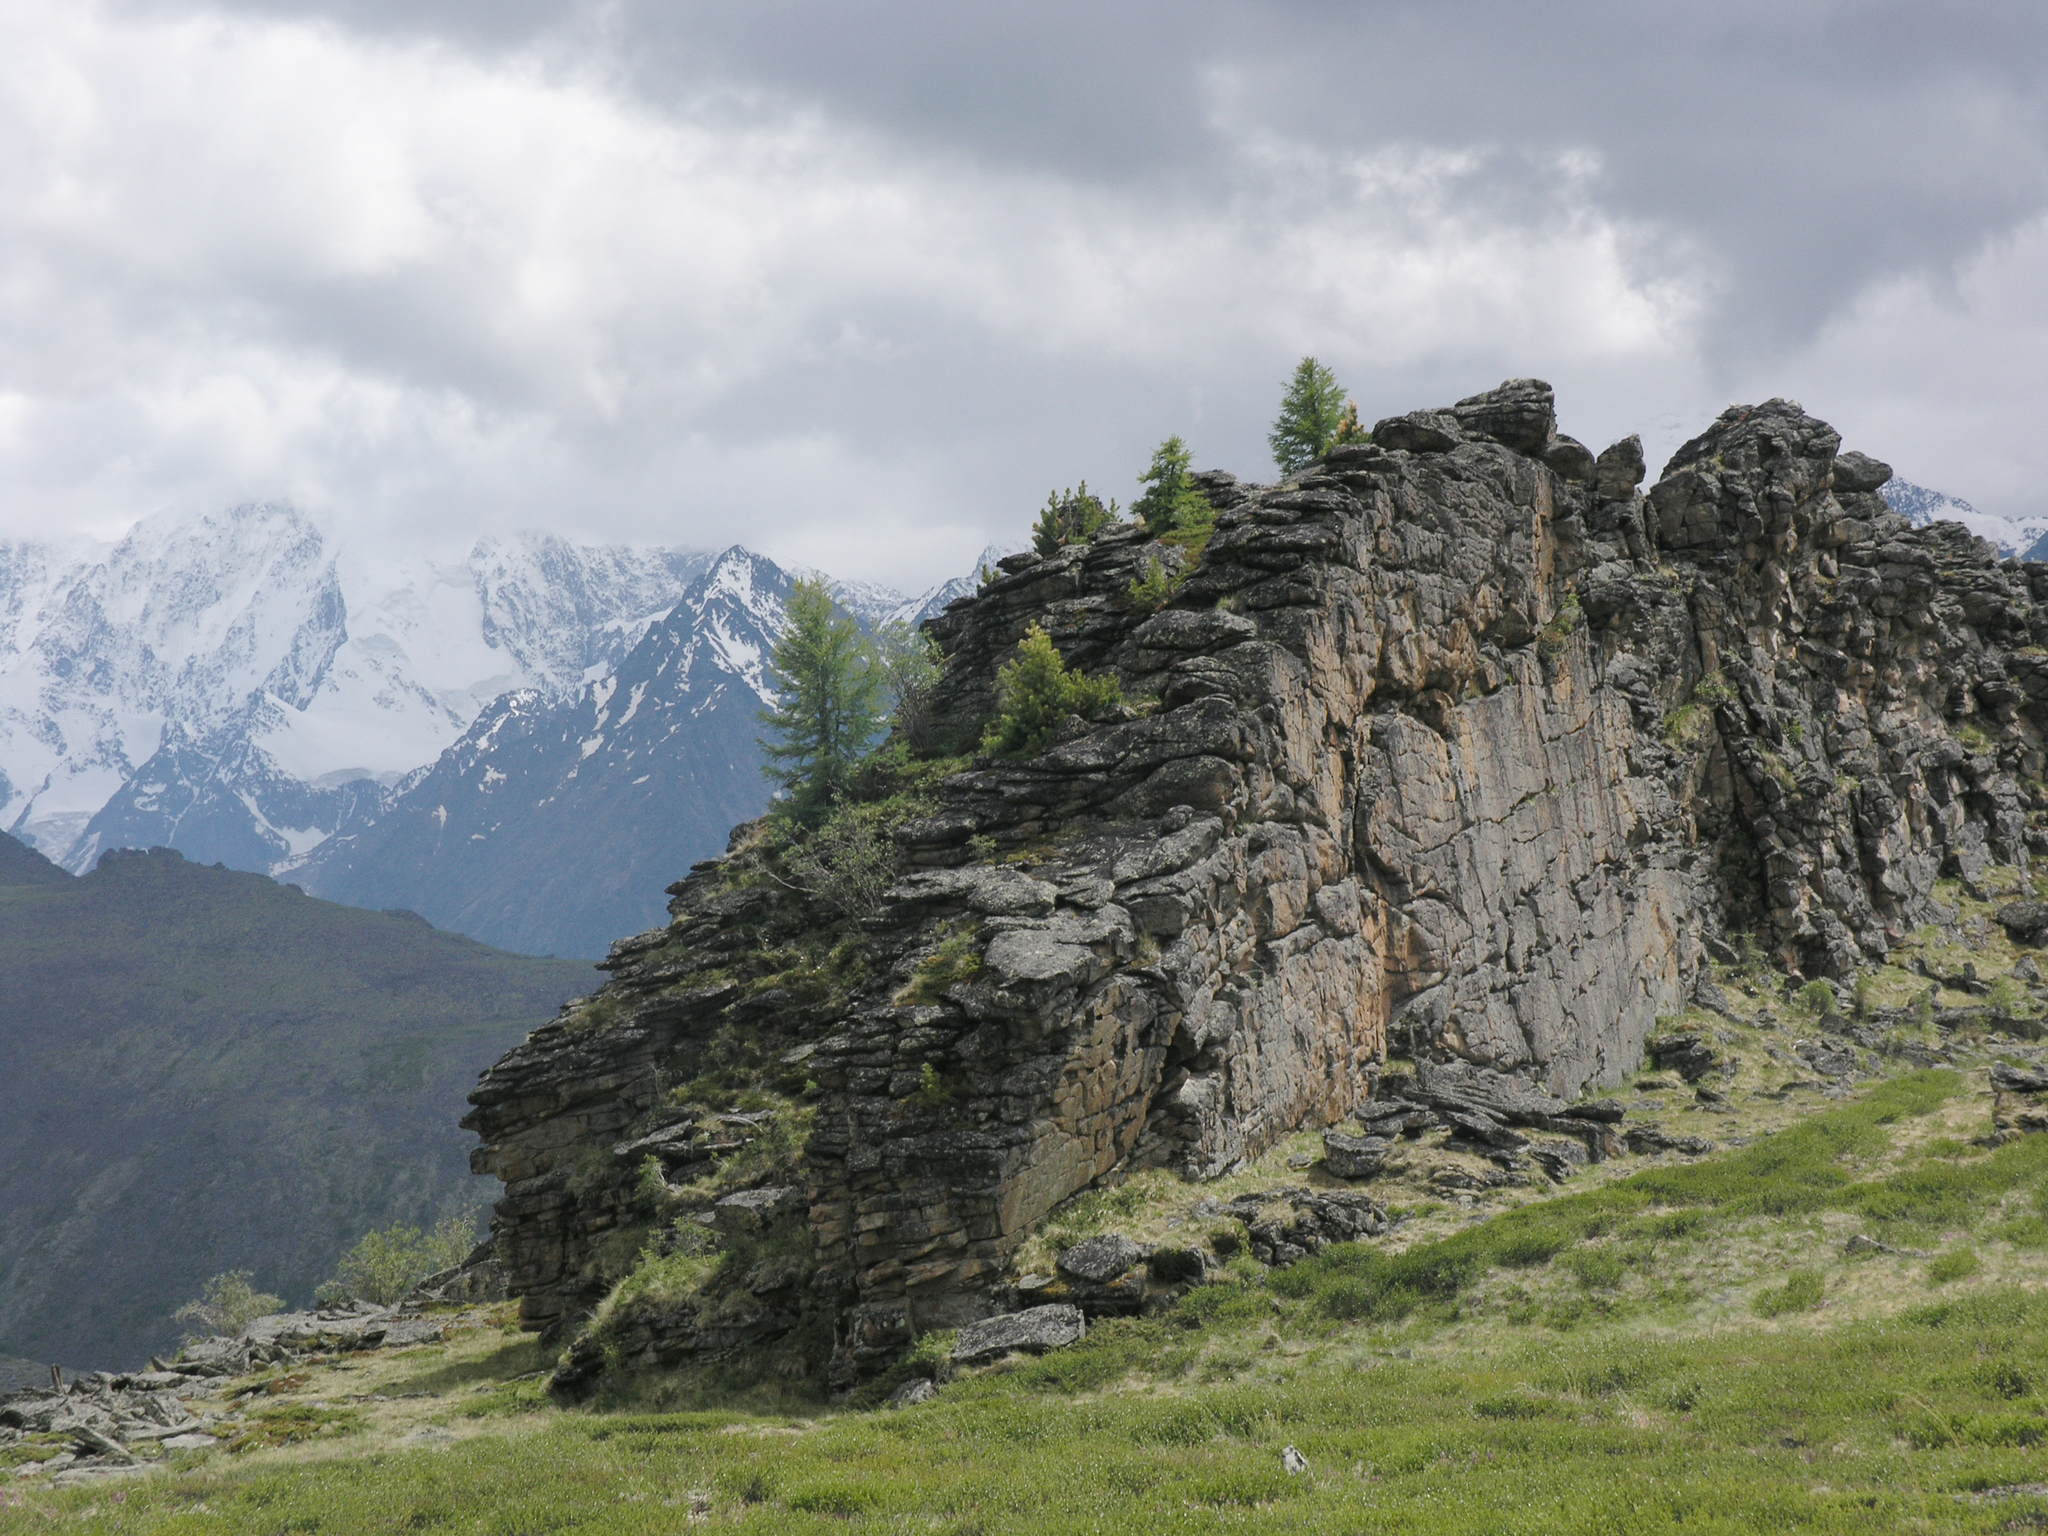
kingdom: Plantae
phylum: Tracheophyta
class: Pinopsida
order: Pinales
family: Pinaceae
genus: Larix
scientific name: Larix sibirica
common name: Siberian larch
